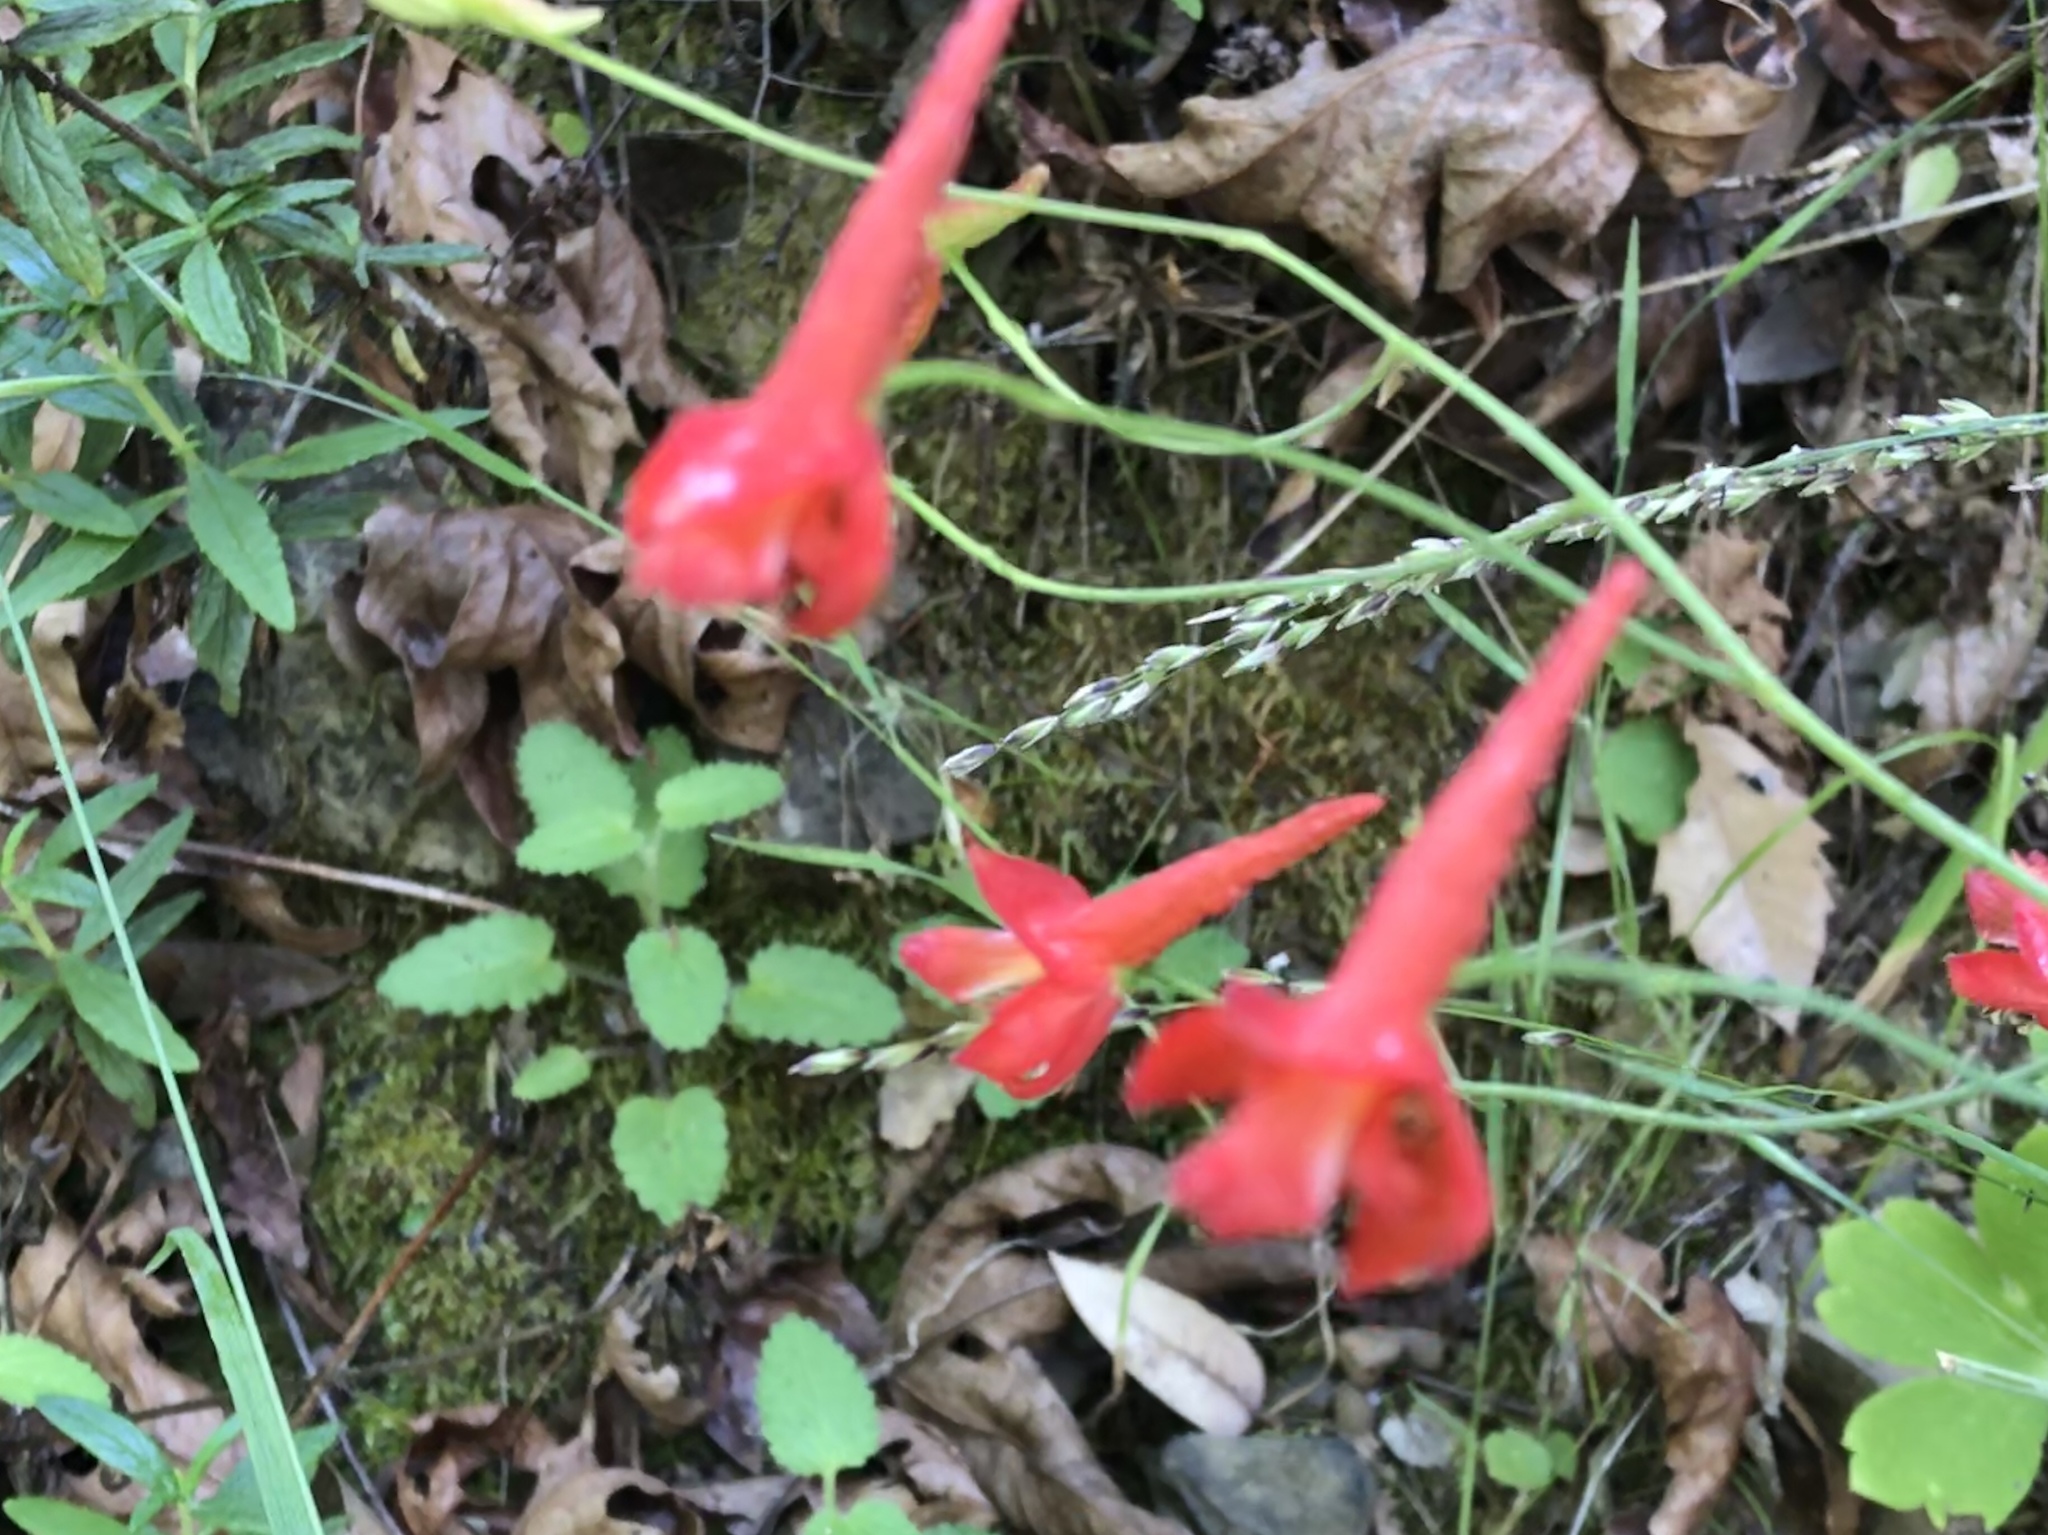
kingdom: Plantae
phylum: Tracheophyta
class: Magnoliopsida
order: Ranunculales
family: Ranunculaceae
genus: Delphinium
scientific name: Delphinium nudicaule
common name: Red larkspur
